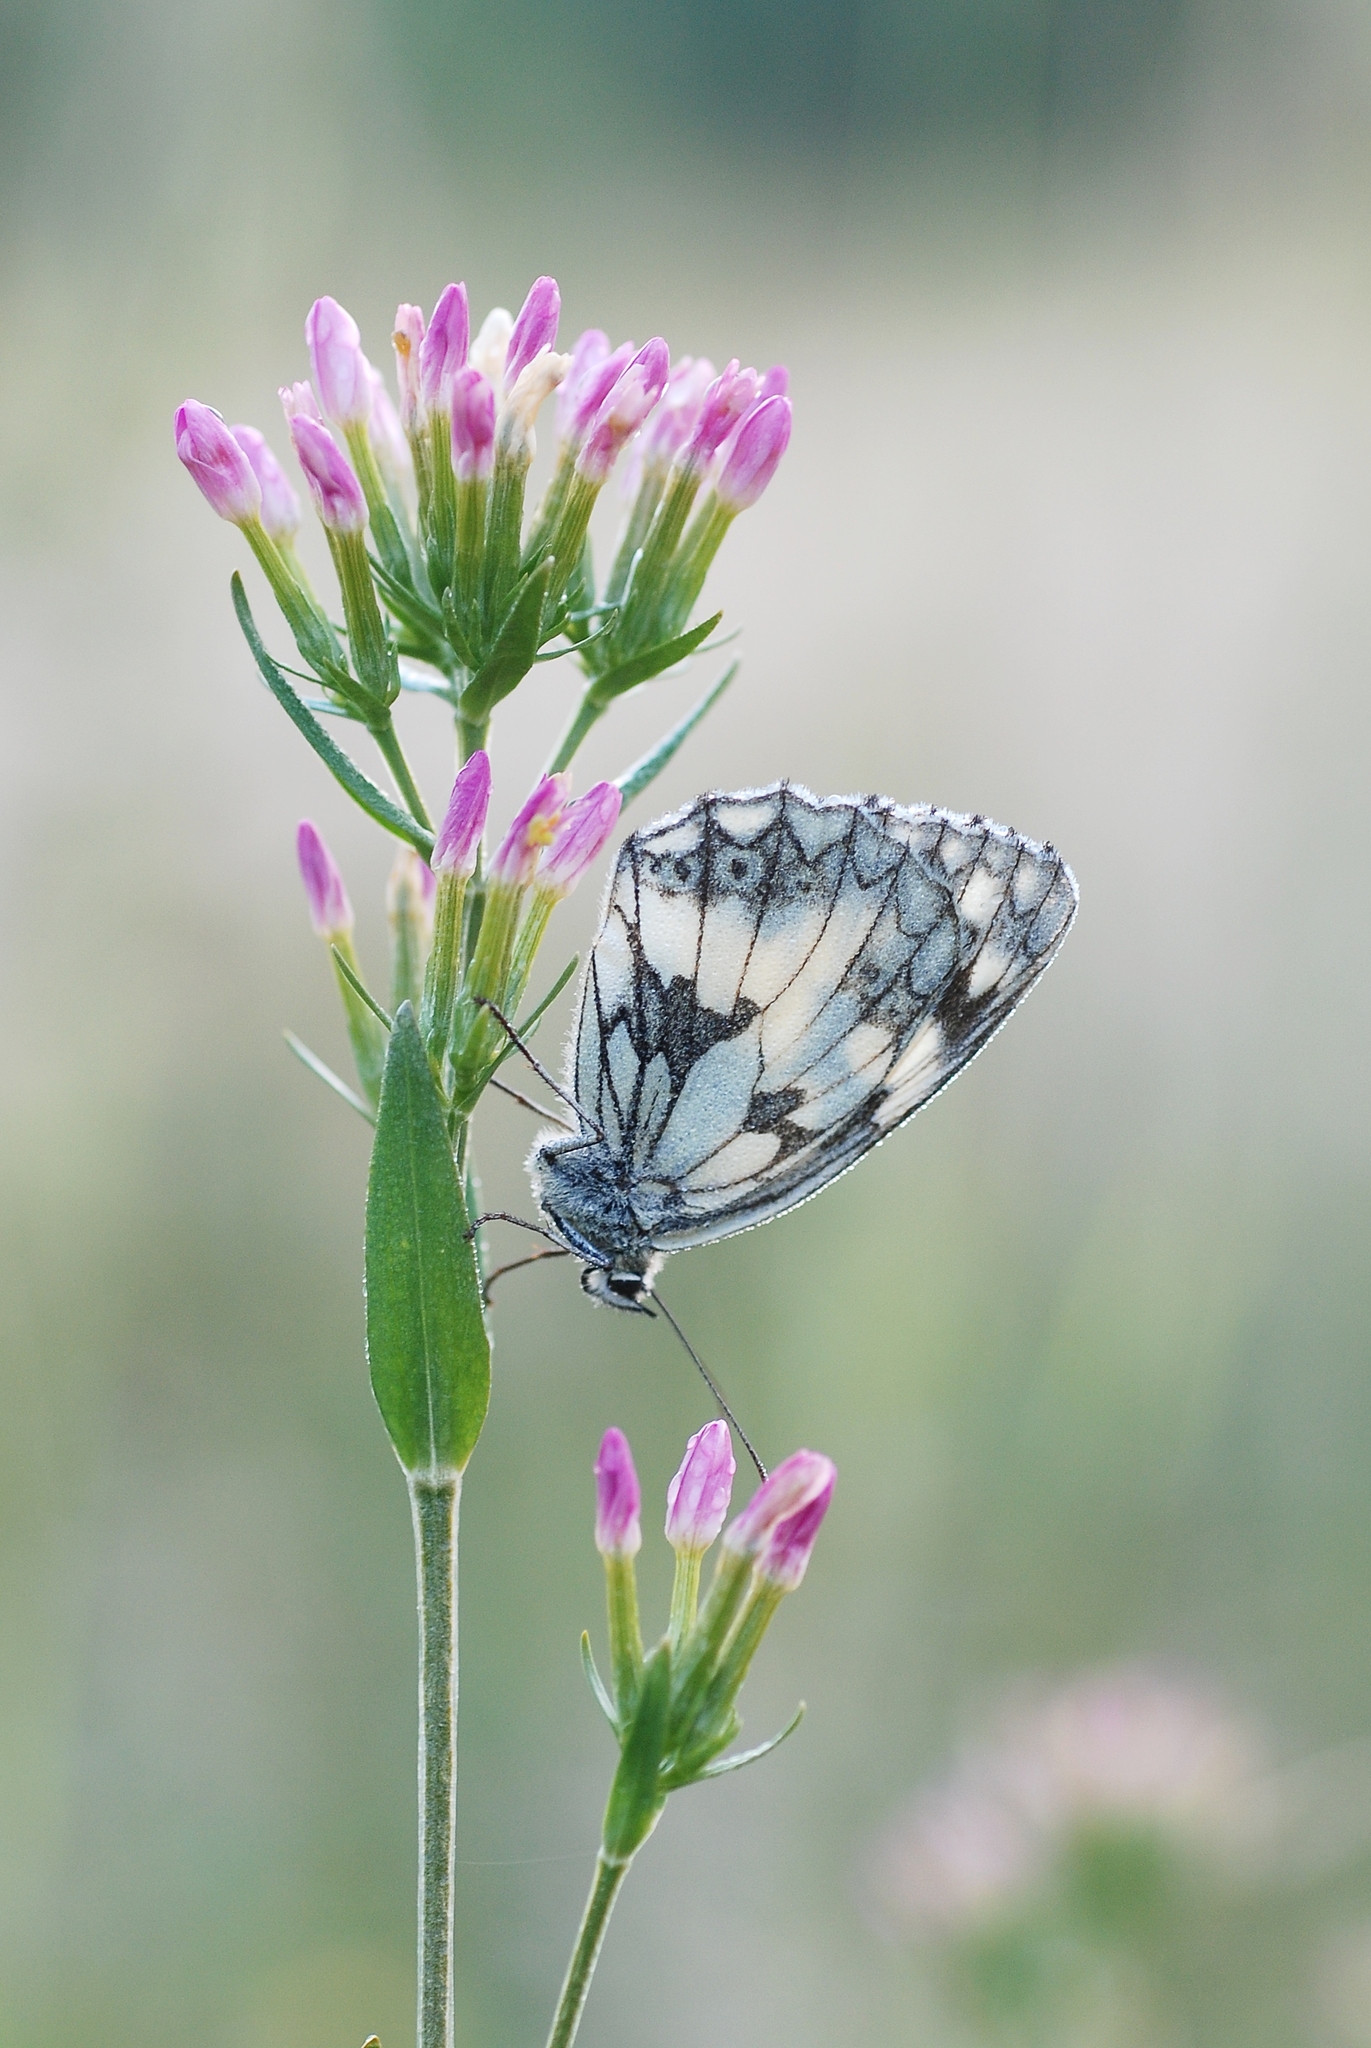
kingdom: Animalia
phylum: Arthropoda
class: Insecta
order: Lepidoptera
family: Nymphalidae
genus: Melanargia
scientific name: Melanargia galathea
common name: Marbled white
